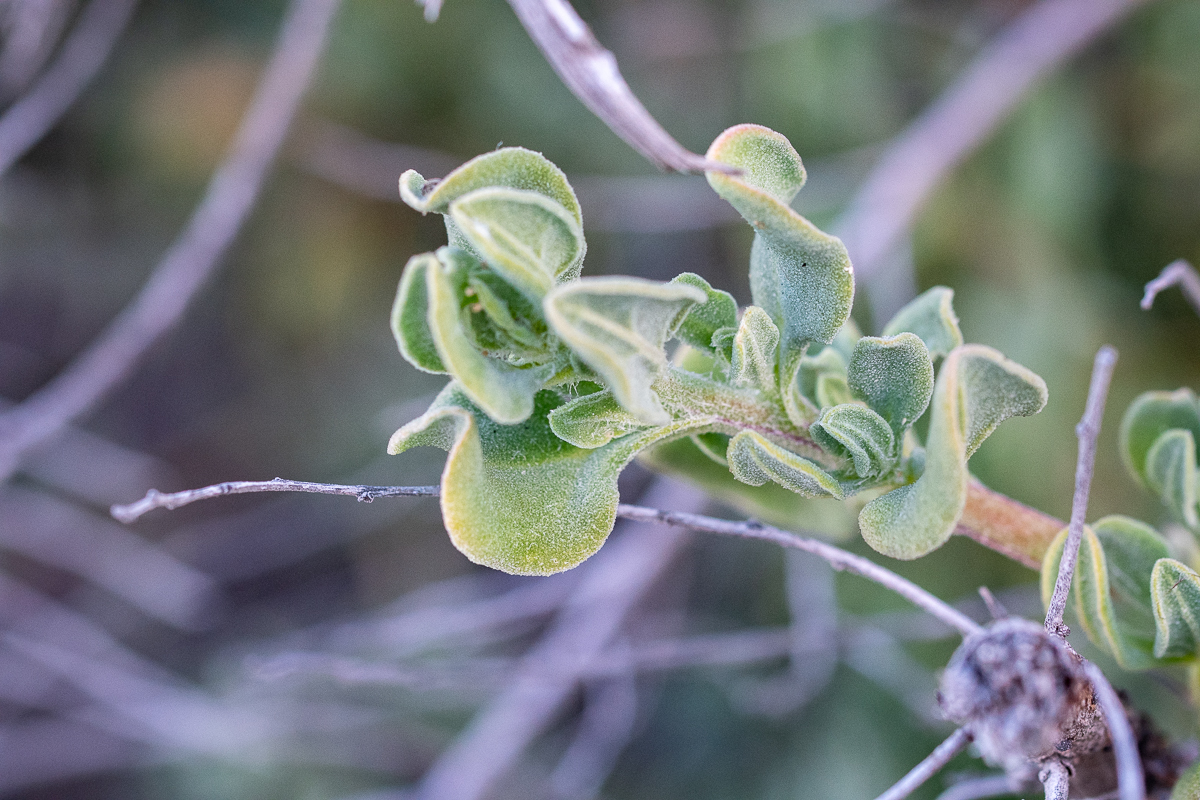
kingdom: Plantae
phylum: Tracheophyta
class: Magnoliopsida
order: Caryophyllales
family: Aizoaceae
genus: Tetragonia
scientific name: Tetragonia decumbens
